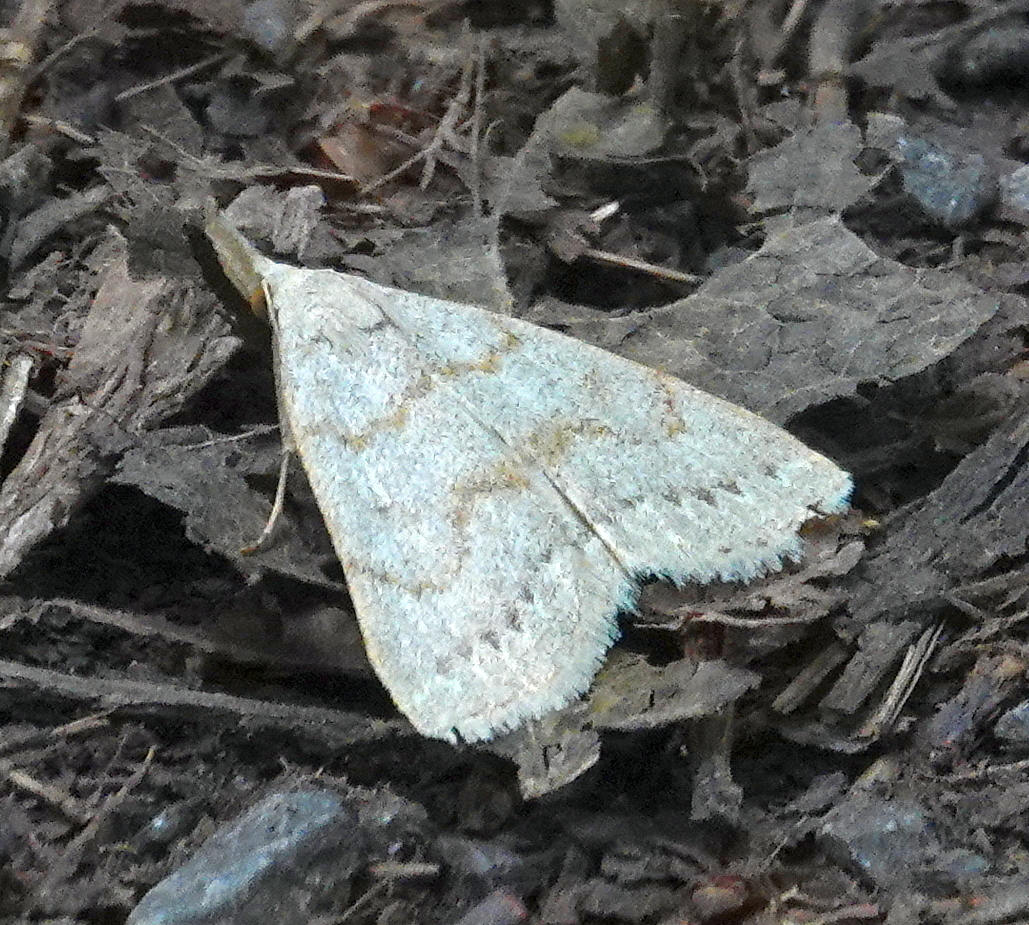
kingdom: Animalia
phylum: Arthropoda
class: Insecta
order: Lepidoptera
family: Erebidae
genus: Macrochilo
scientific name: Macrochilo morbidalis
